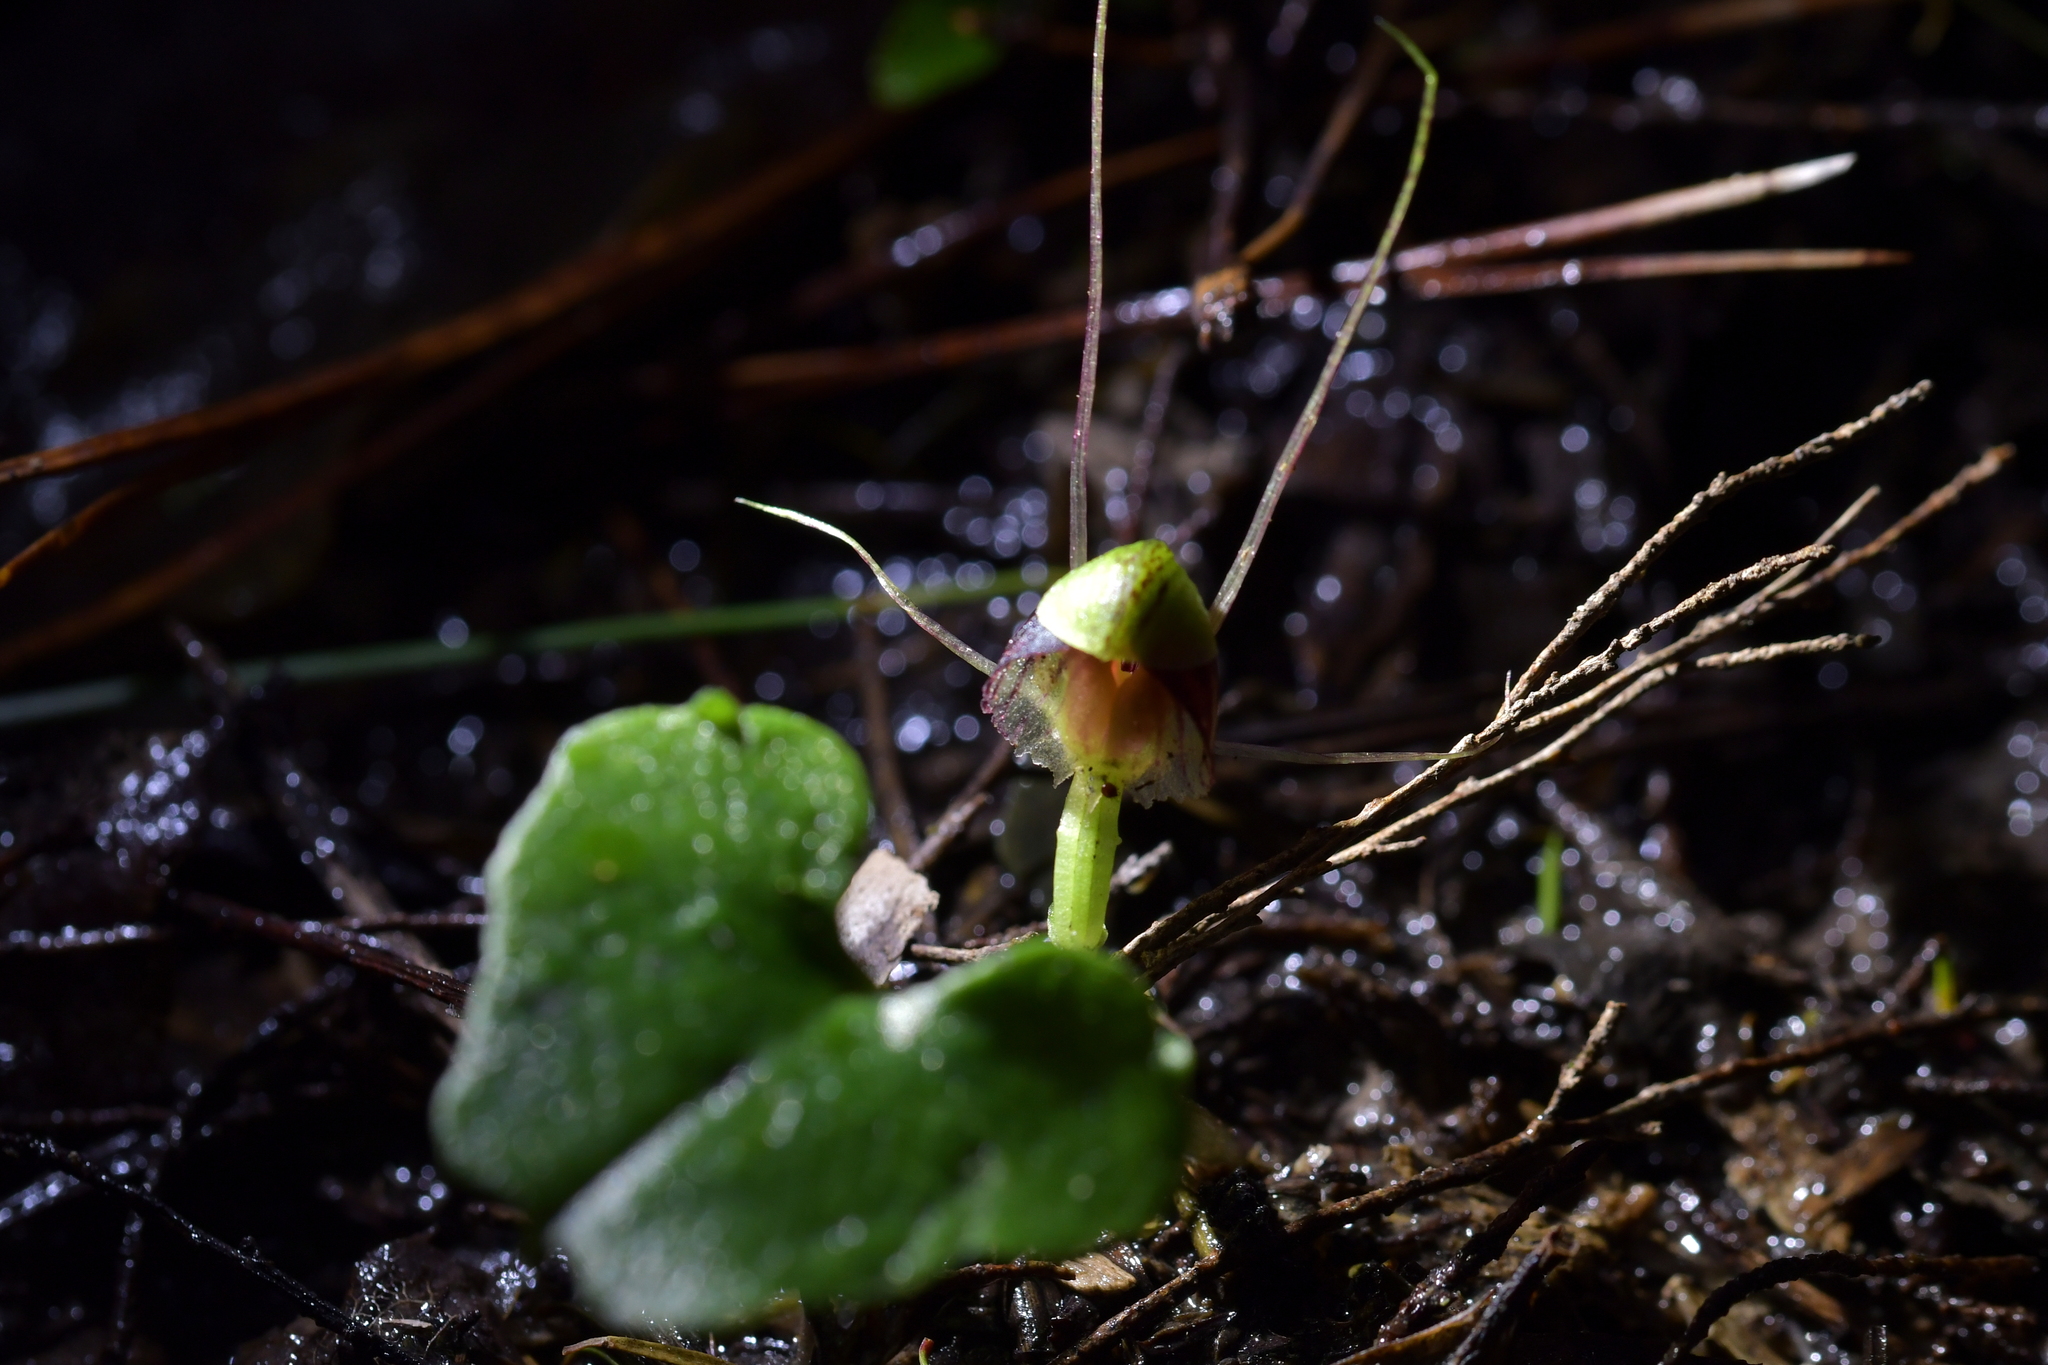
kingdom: Plantae
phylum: Tracheophyta
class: Liliopsida
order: Asparagales
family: Orchidaceae
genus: Corybas
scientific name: Corybas vitreus
